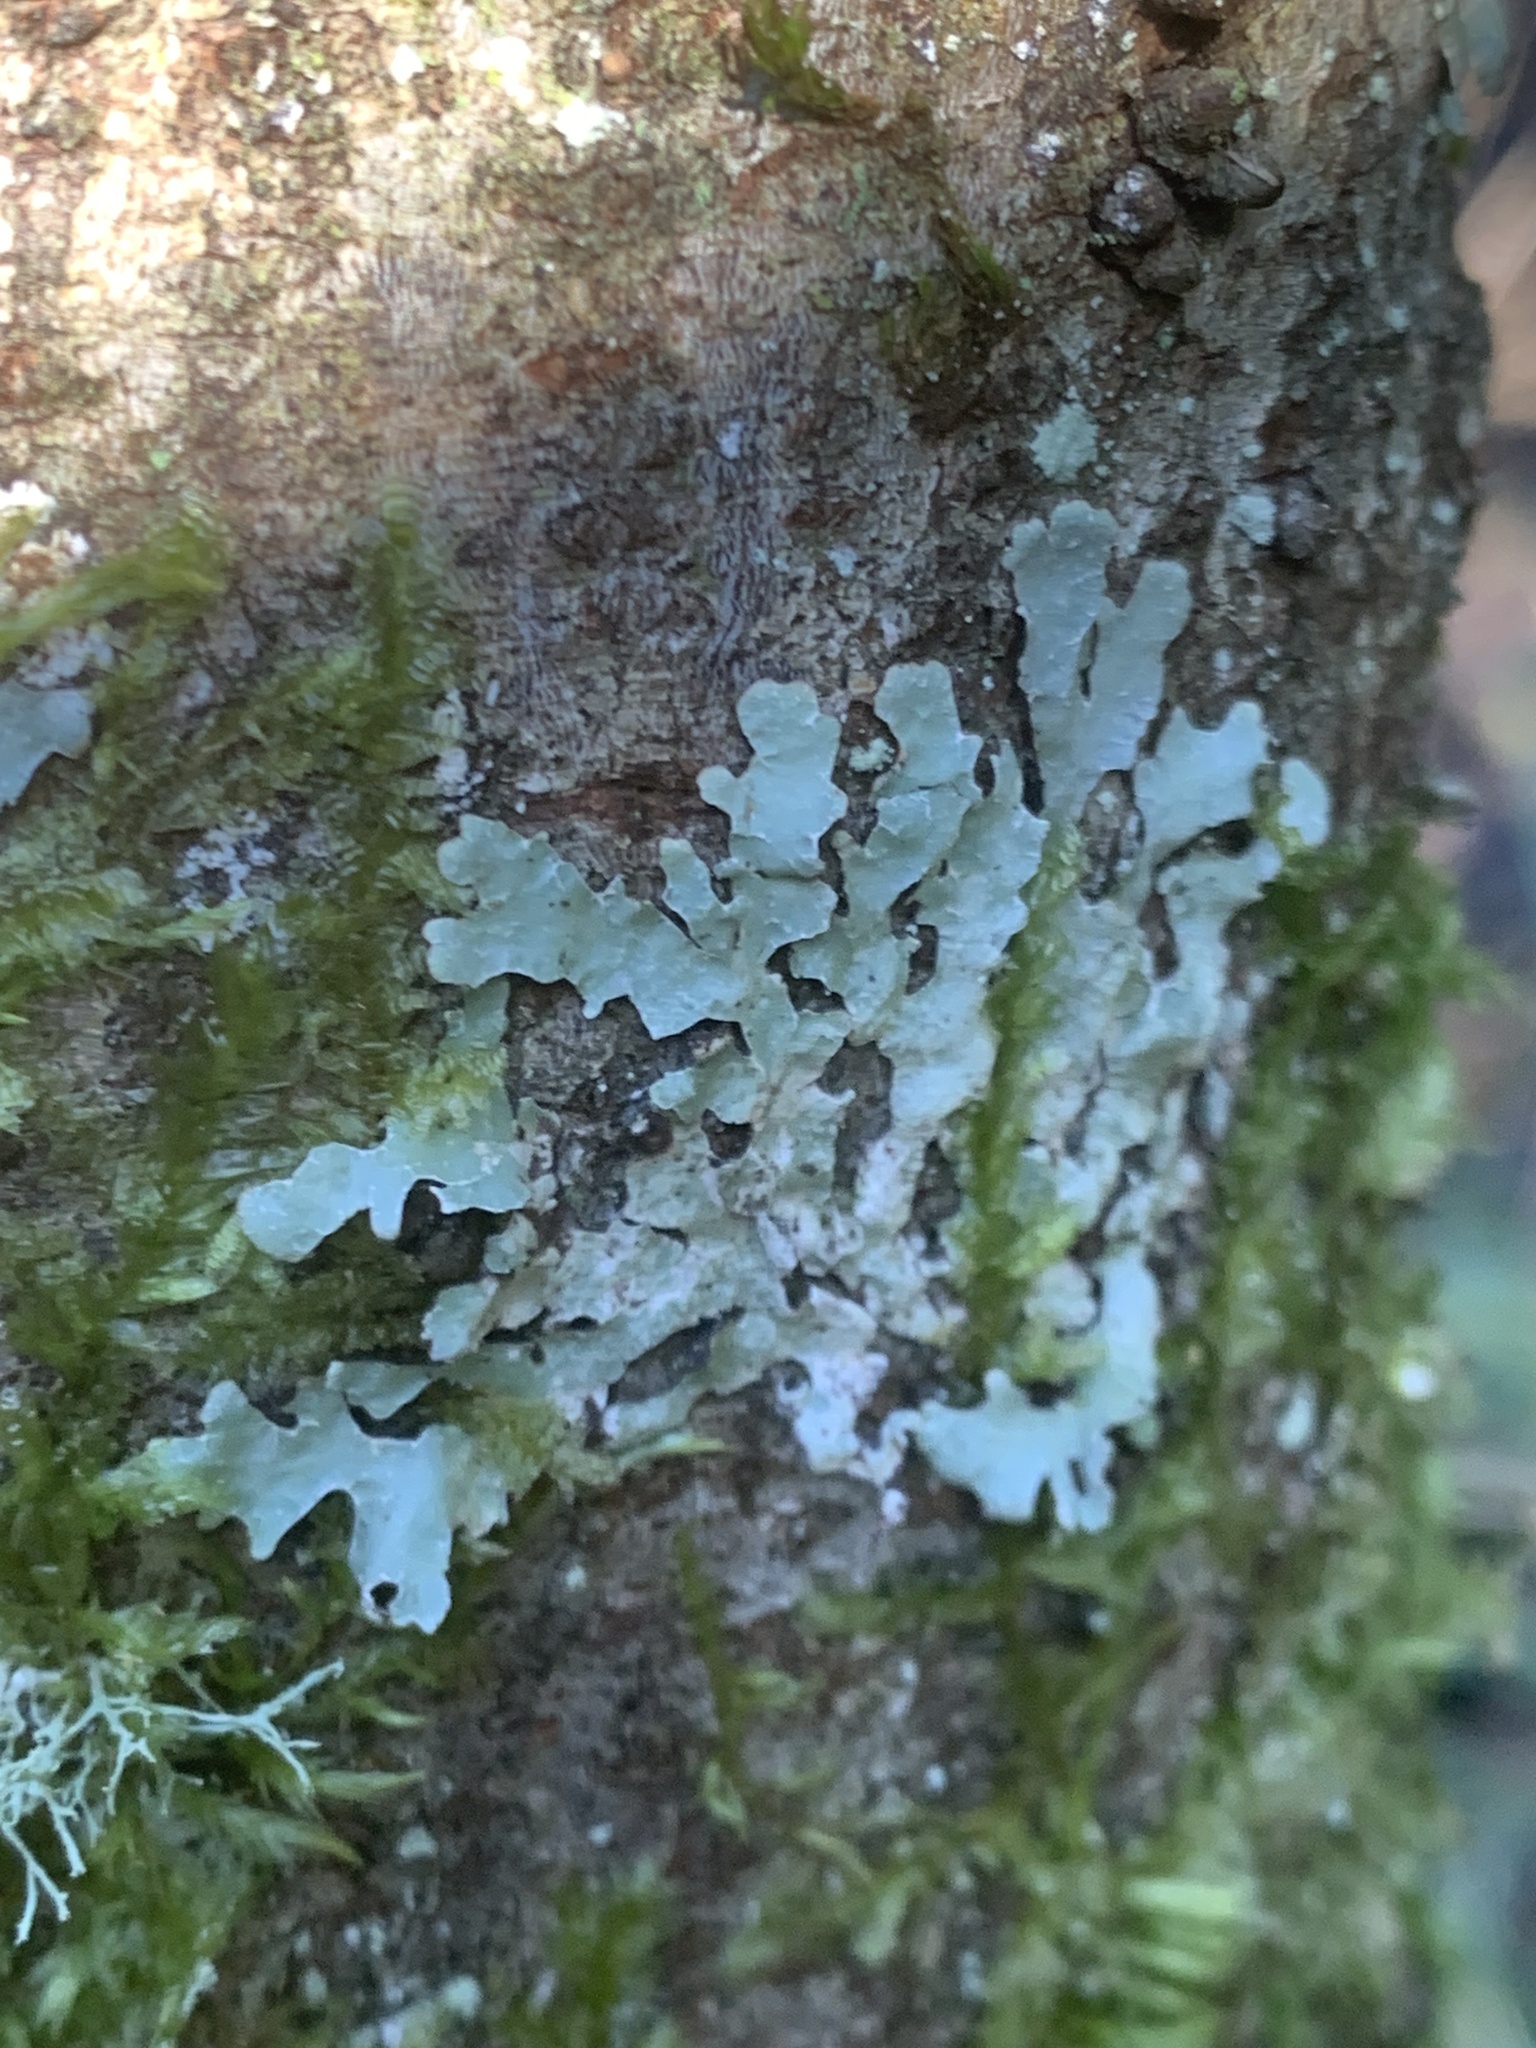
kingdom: Fungi
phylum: Ascomycota
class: Lecanoromycetes
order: Lecanorales
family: Parmeliaceae
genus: Parmelia
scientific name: Parmelia squarrosa
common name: Bottle brush shield lichen
